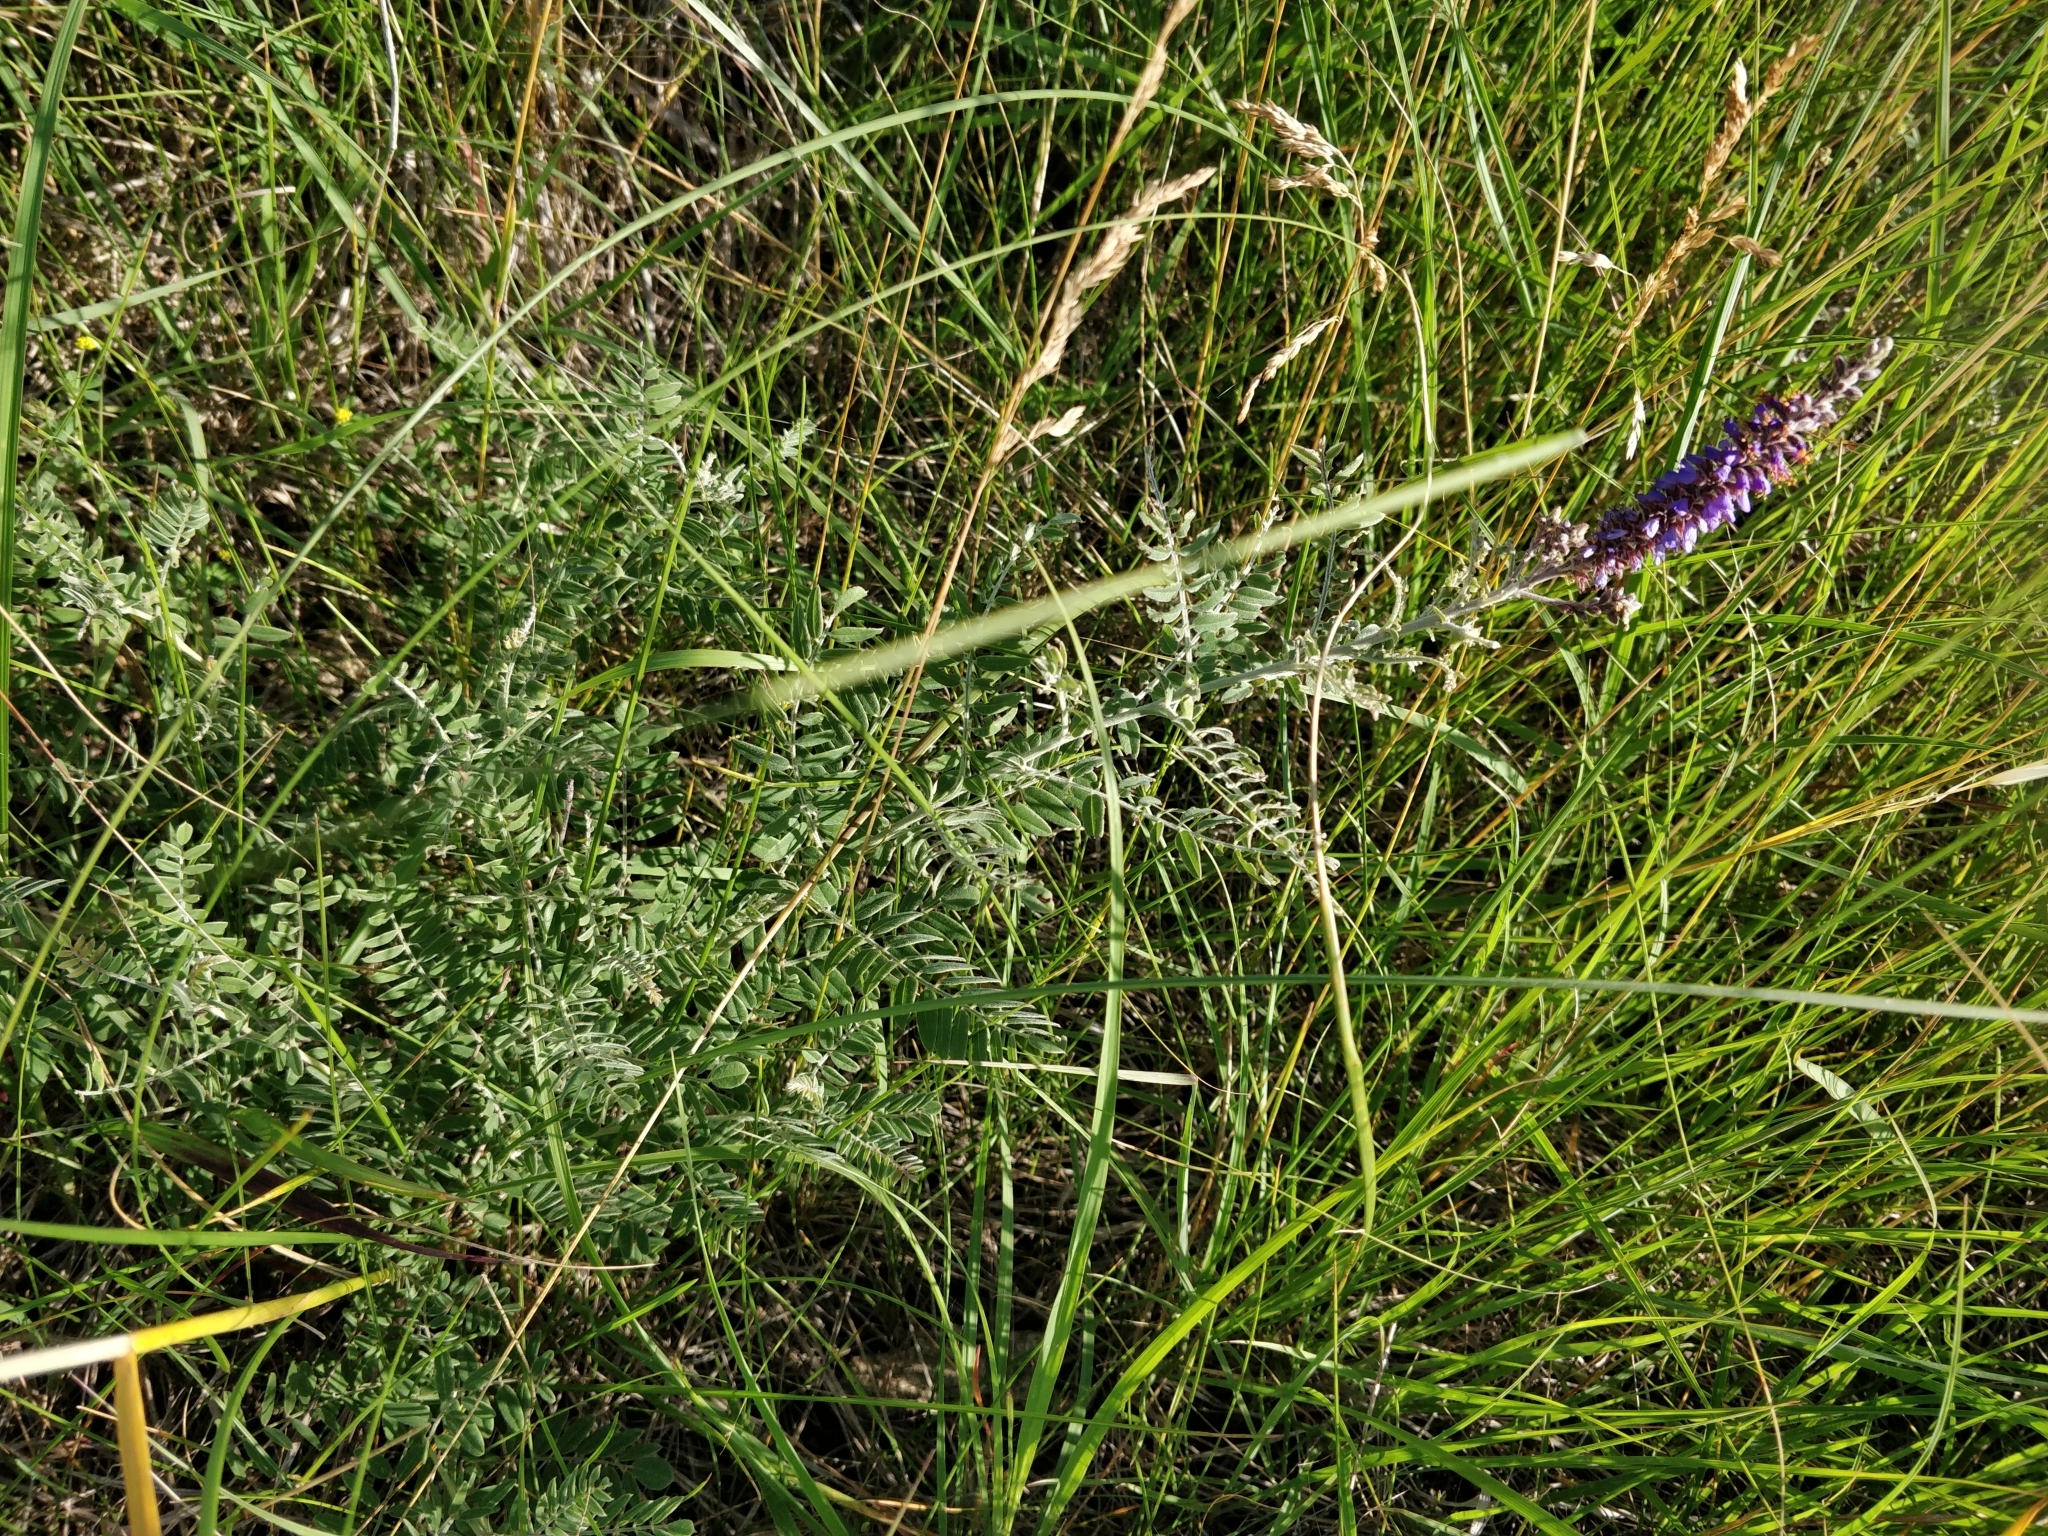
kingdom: Plantae
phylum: Tracheophyta
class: Magnoliopsida
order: Fabales
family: Fabaceae
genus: Amorpha
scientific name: Amorpha canescens
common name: Leadplant
